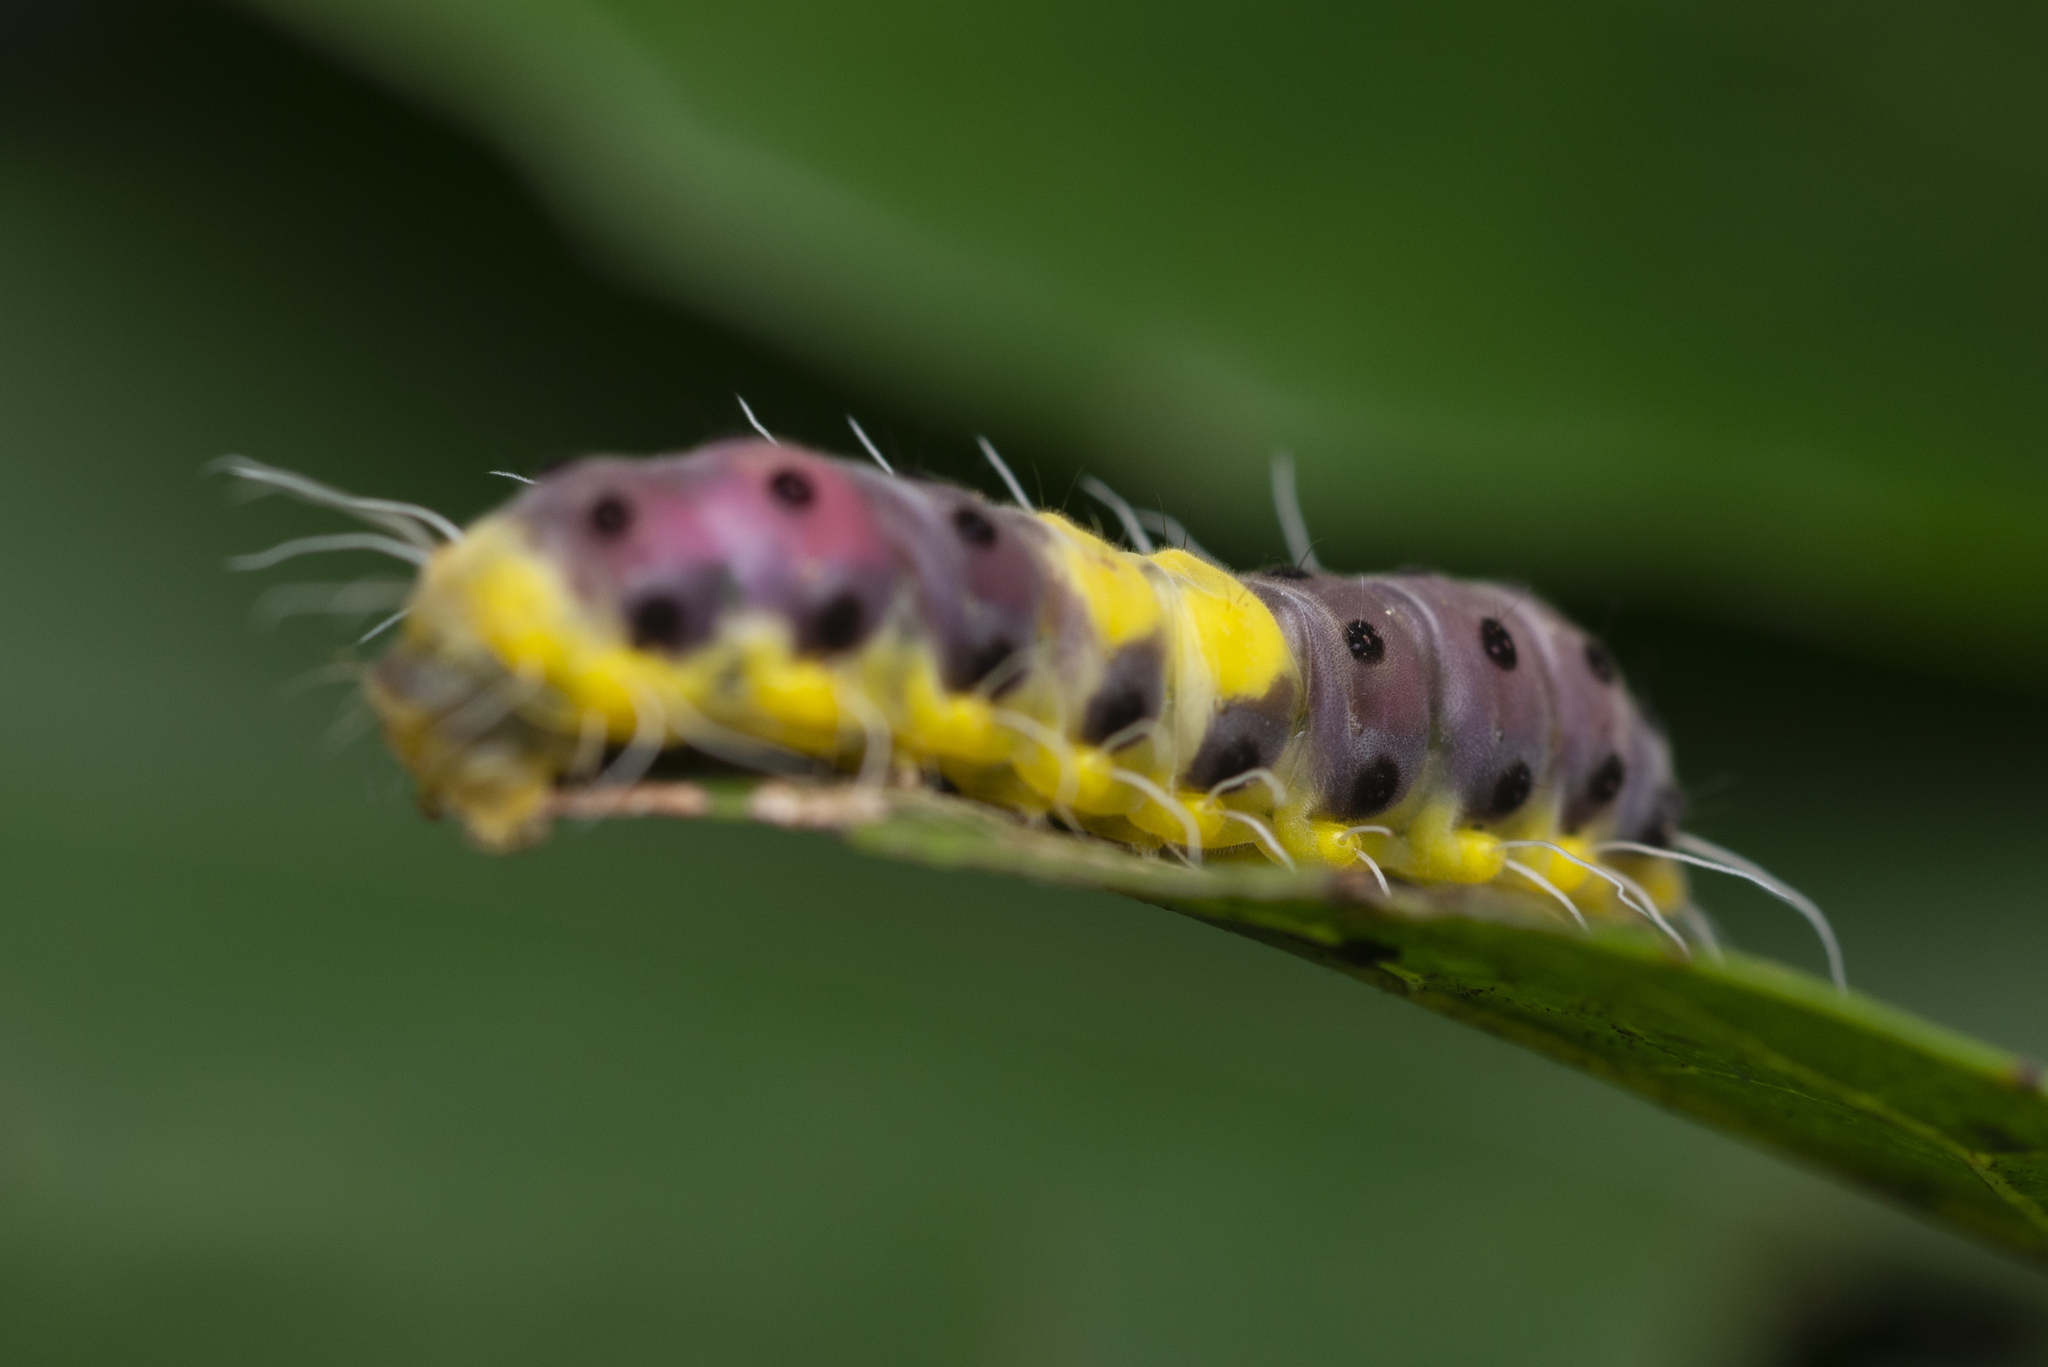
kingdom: Animalia
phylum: Arthropoda
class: Insecta
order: Lepidoptera
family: Zygaenidae
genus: Retina
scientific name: Retina rubrivitta
